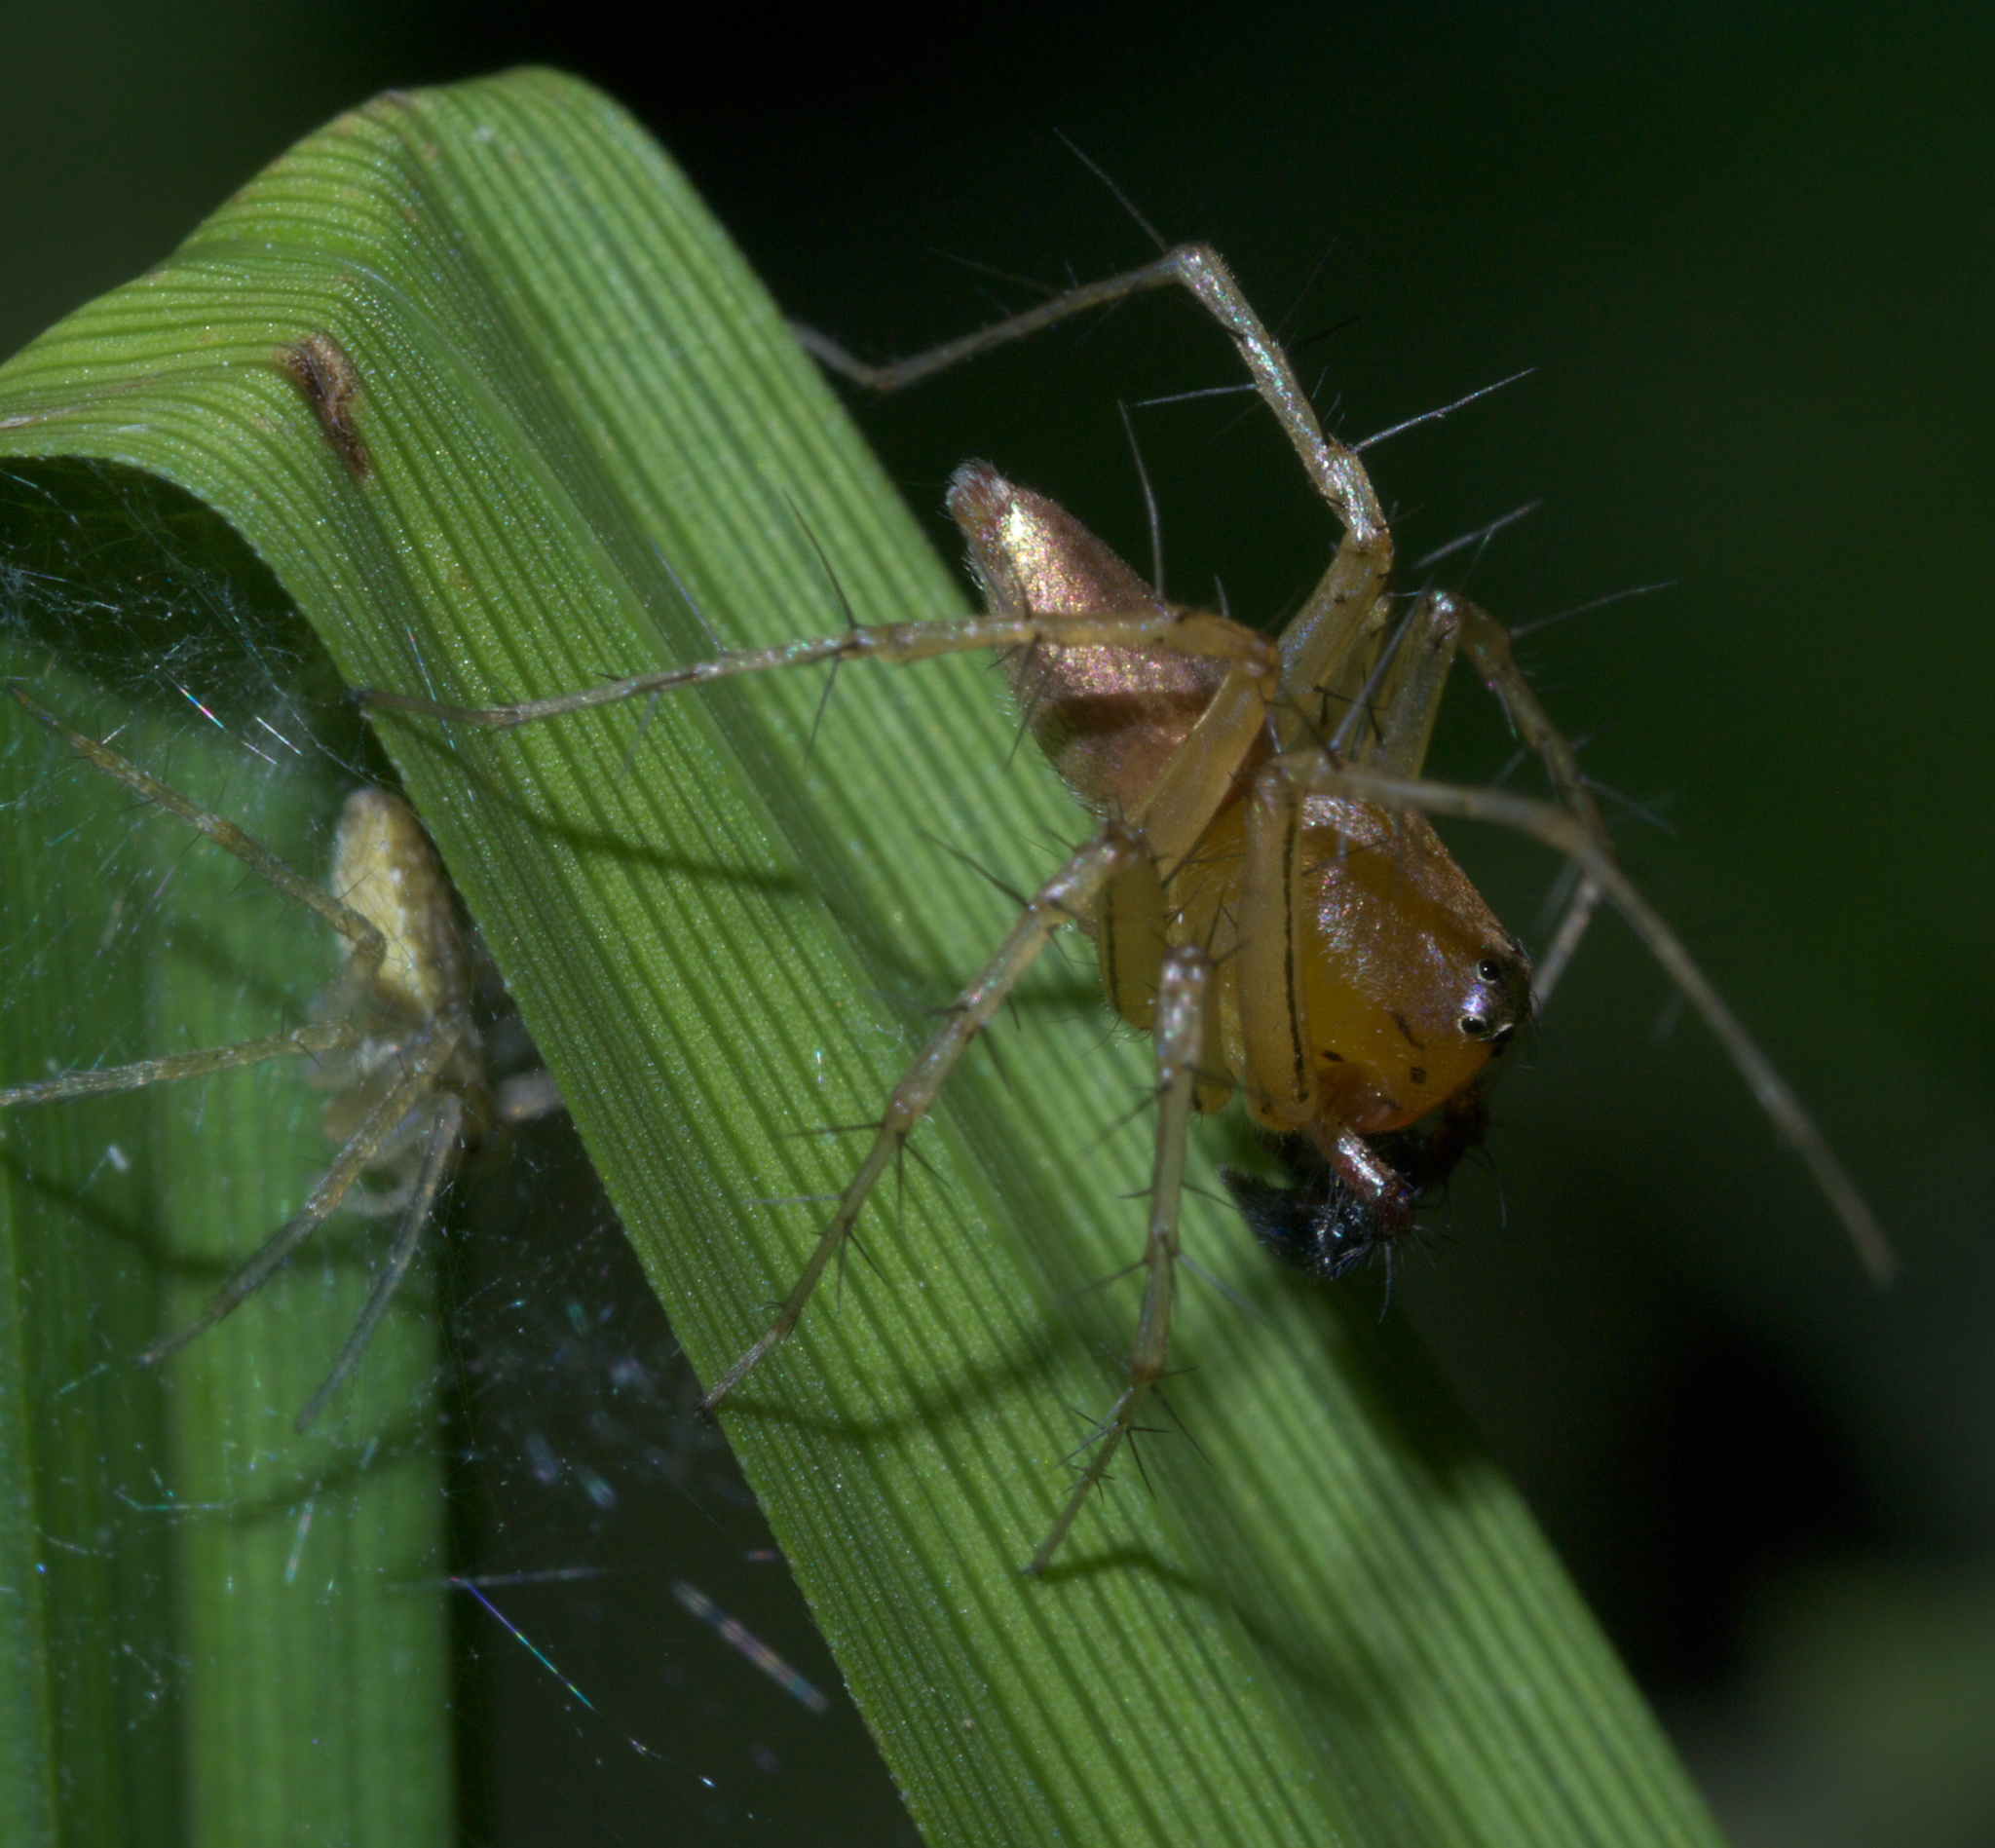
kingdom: Animalia
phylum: Arthropoda
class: Arachnida
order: Araneae
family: Oxyopidae
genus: Oxyopes
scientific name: Oxyopes salticus
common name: Lynx spiders
